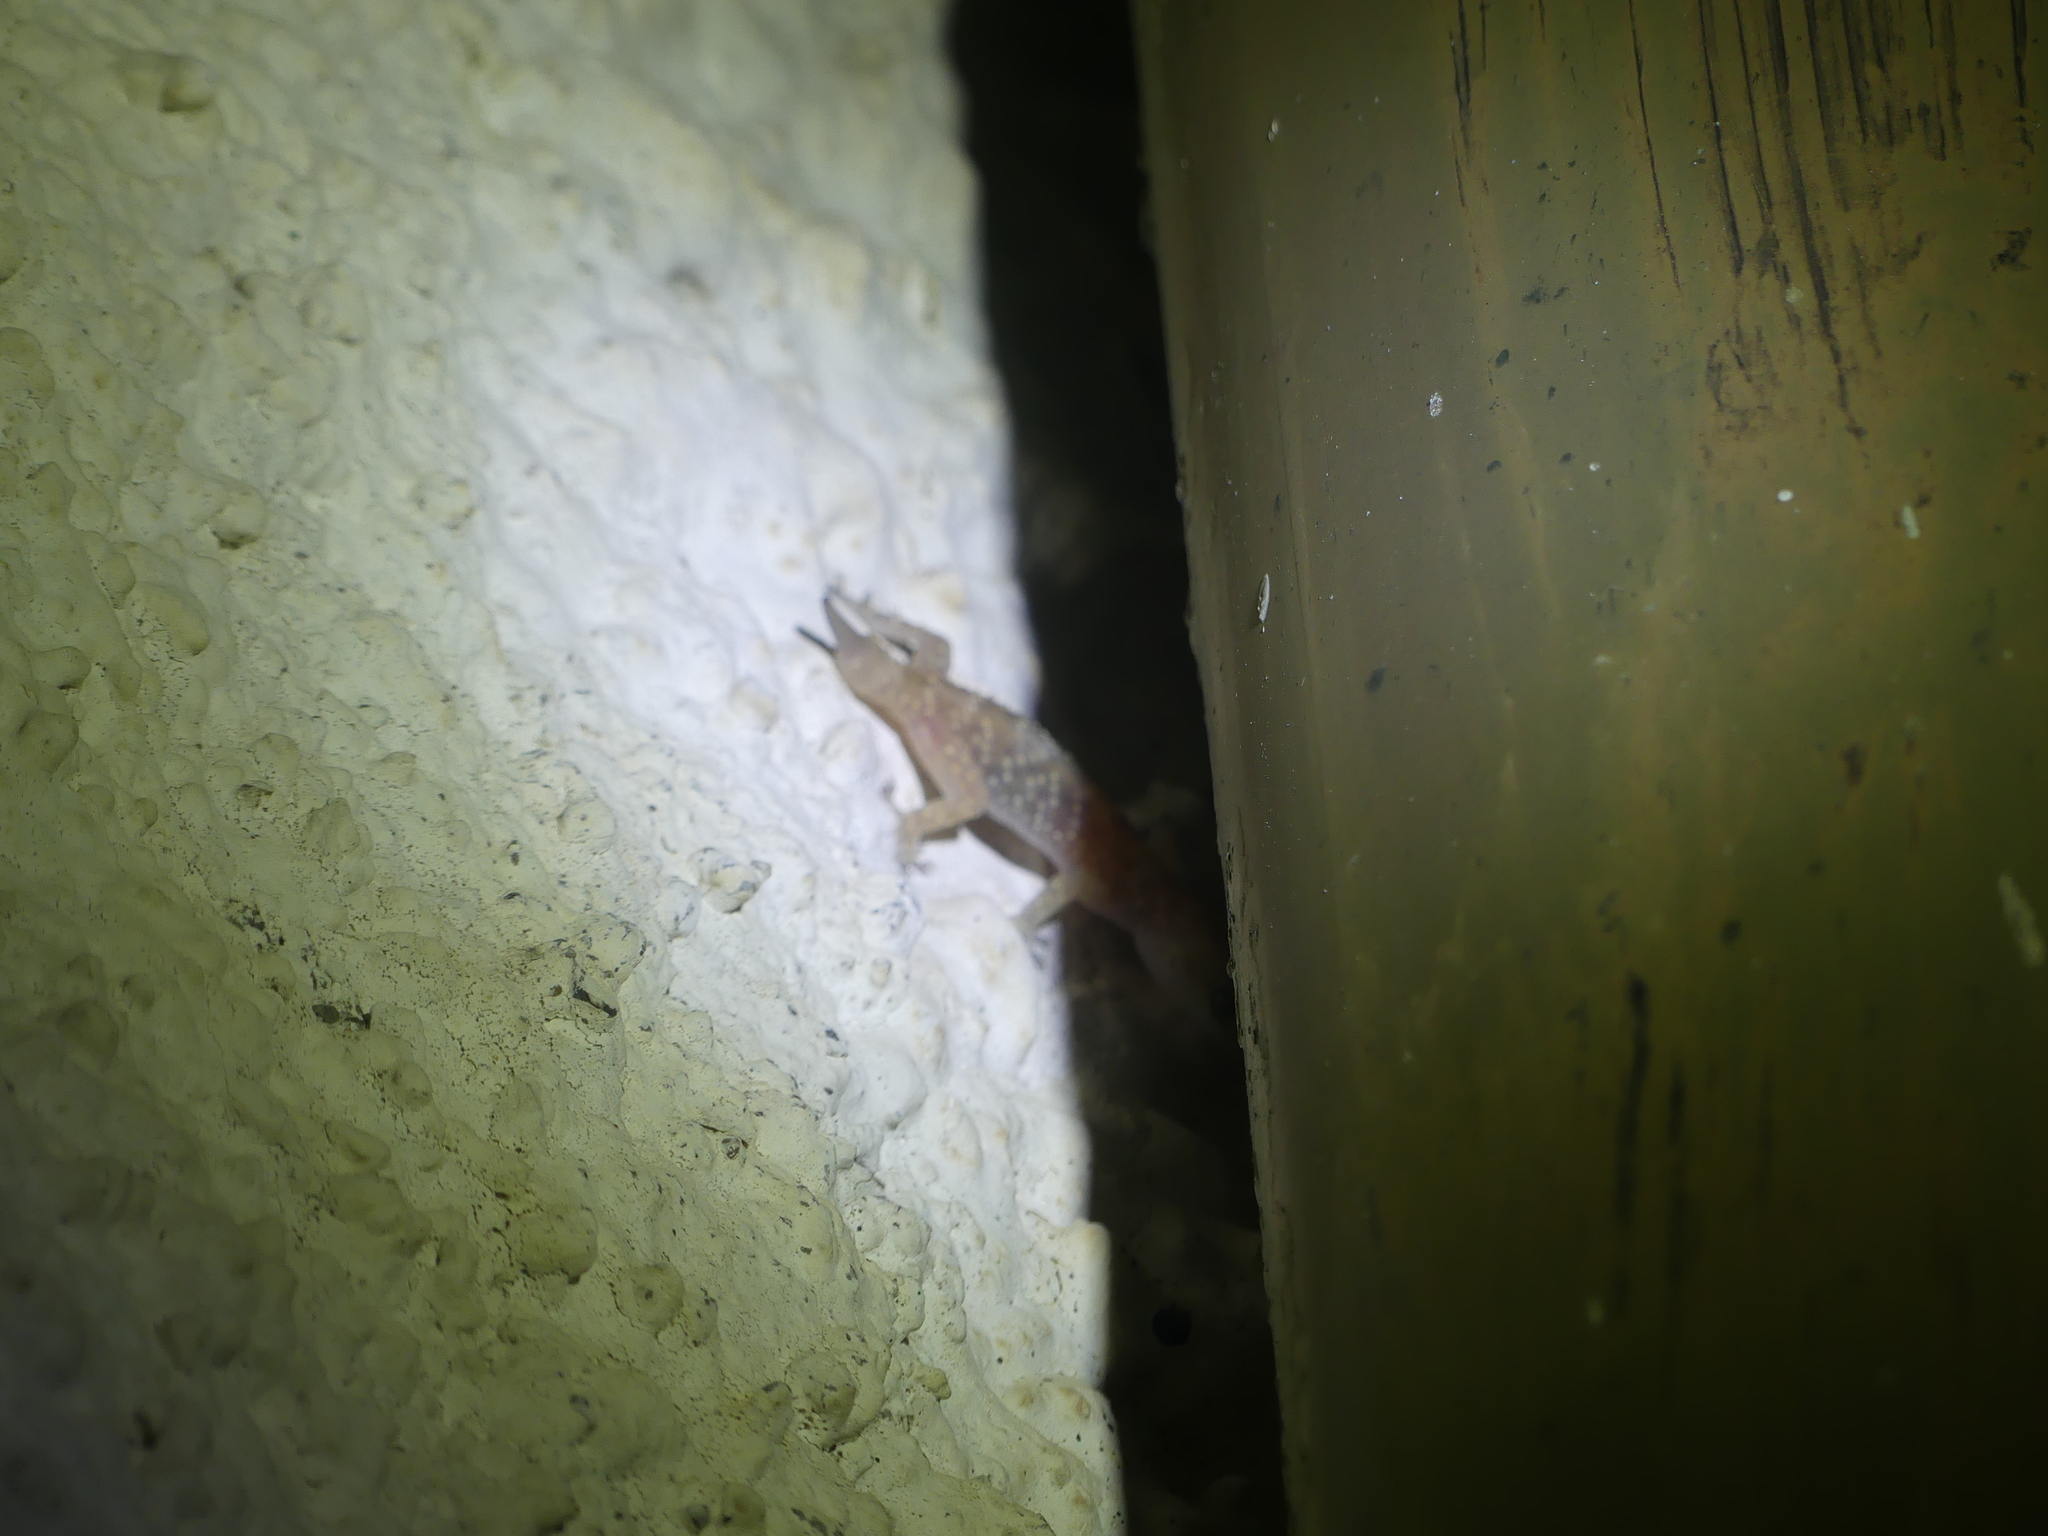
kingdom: Animalia
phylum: Chordata
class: Squamata
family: Gekkonidae
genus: Hemidactylus
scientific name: Hemidactylus turcicus
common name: Turkish gecko
